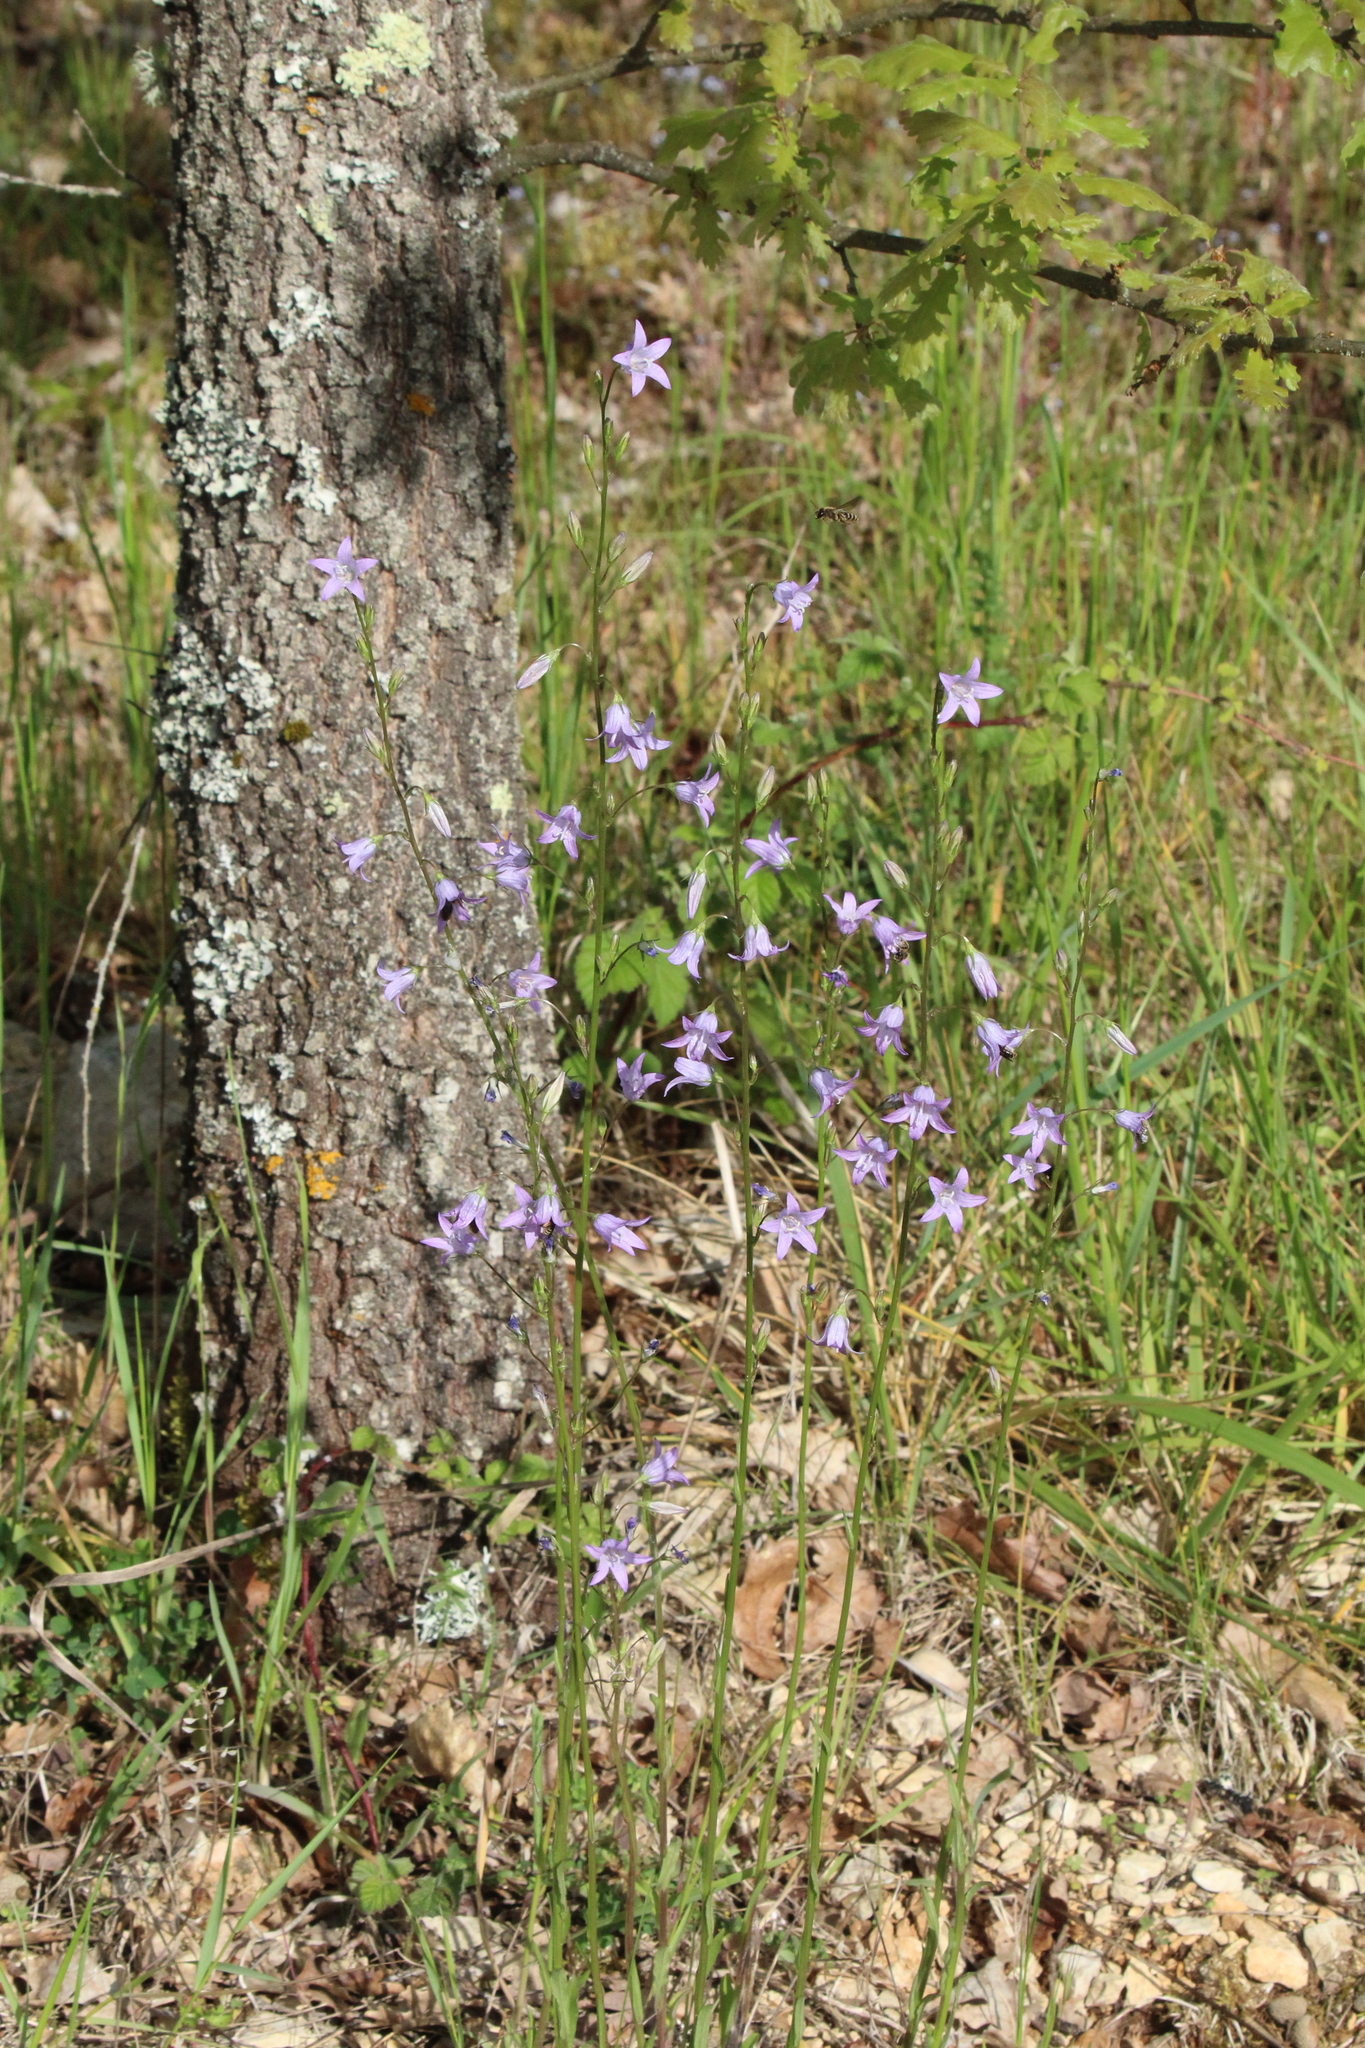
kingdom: Plantae
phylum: Tracheophyta
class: Magnoliopsida
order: Asterales
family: Campanulaceae
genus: Campanula
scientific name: Campanula rapunculus
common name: Rampion bellflower
